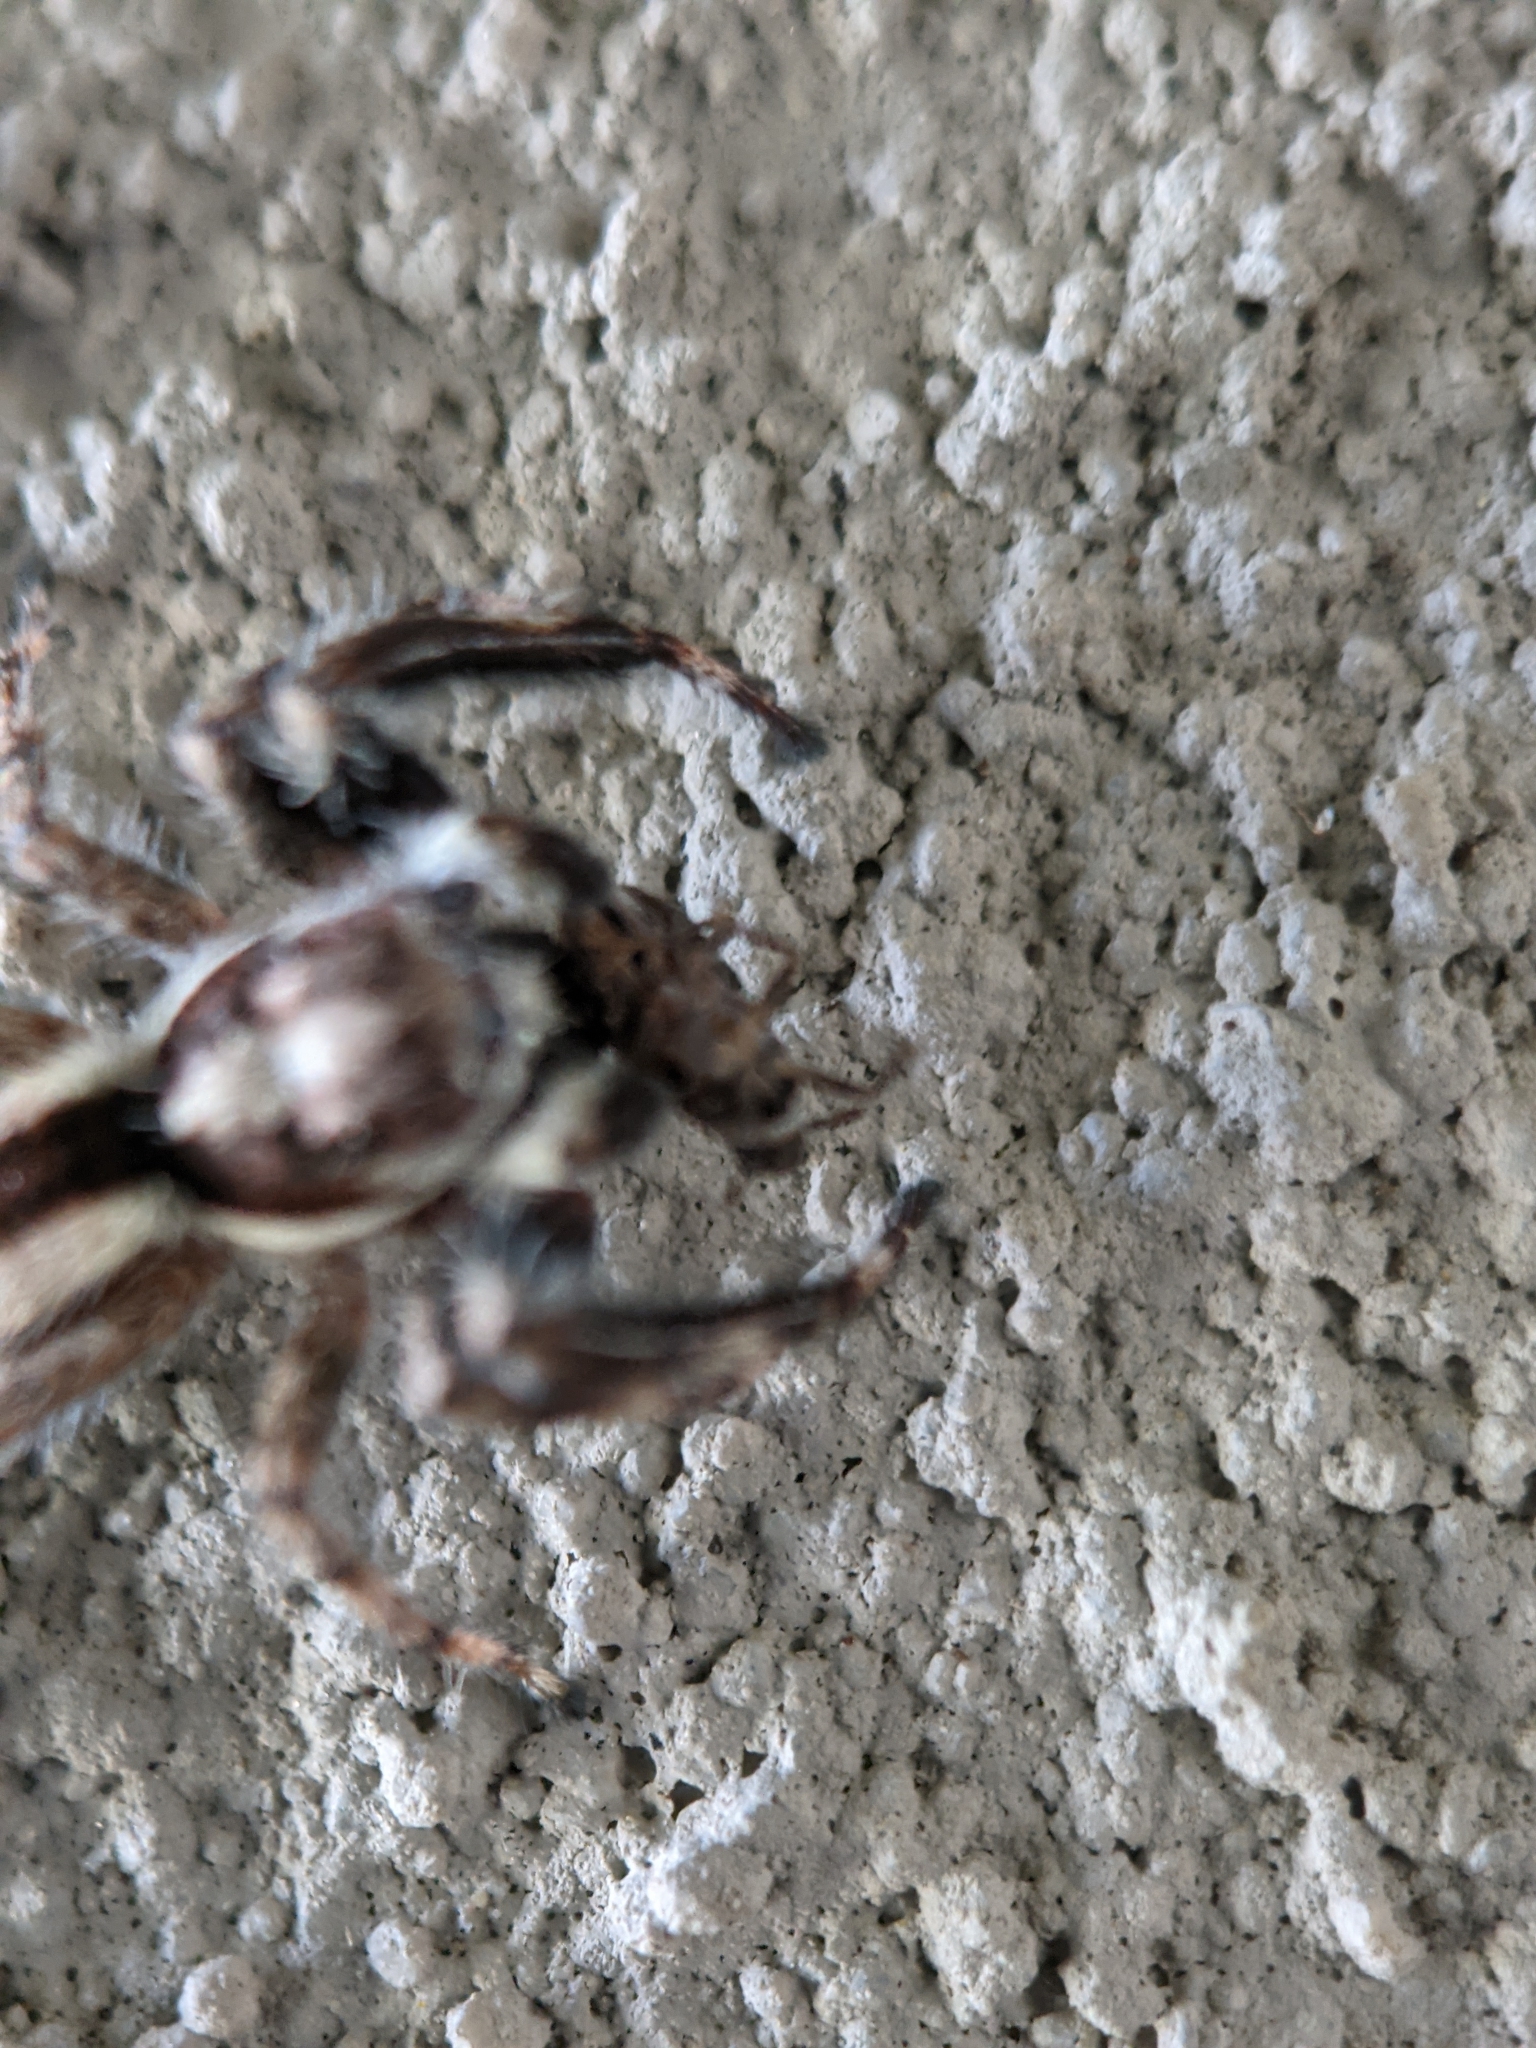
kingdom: Animalia
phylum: Arthropoda
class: Arachnida
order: Araneae
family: Salticidae
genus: Menemerus
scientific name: Menemerus bivittatus
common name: Gray wall jumper
